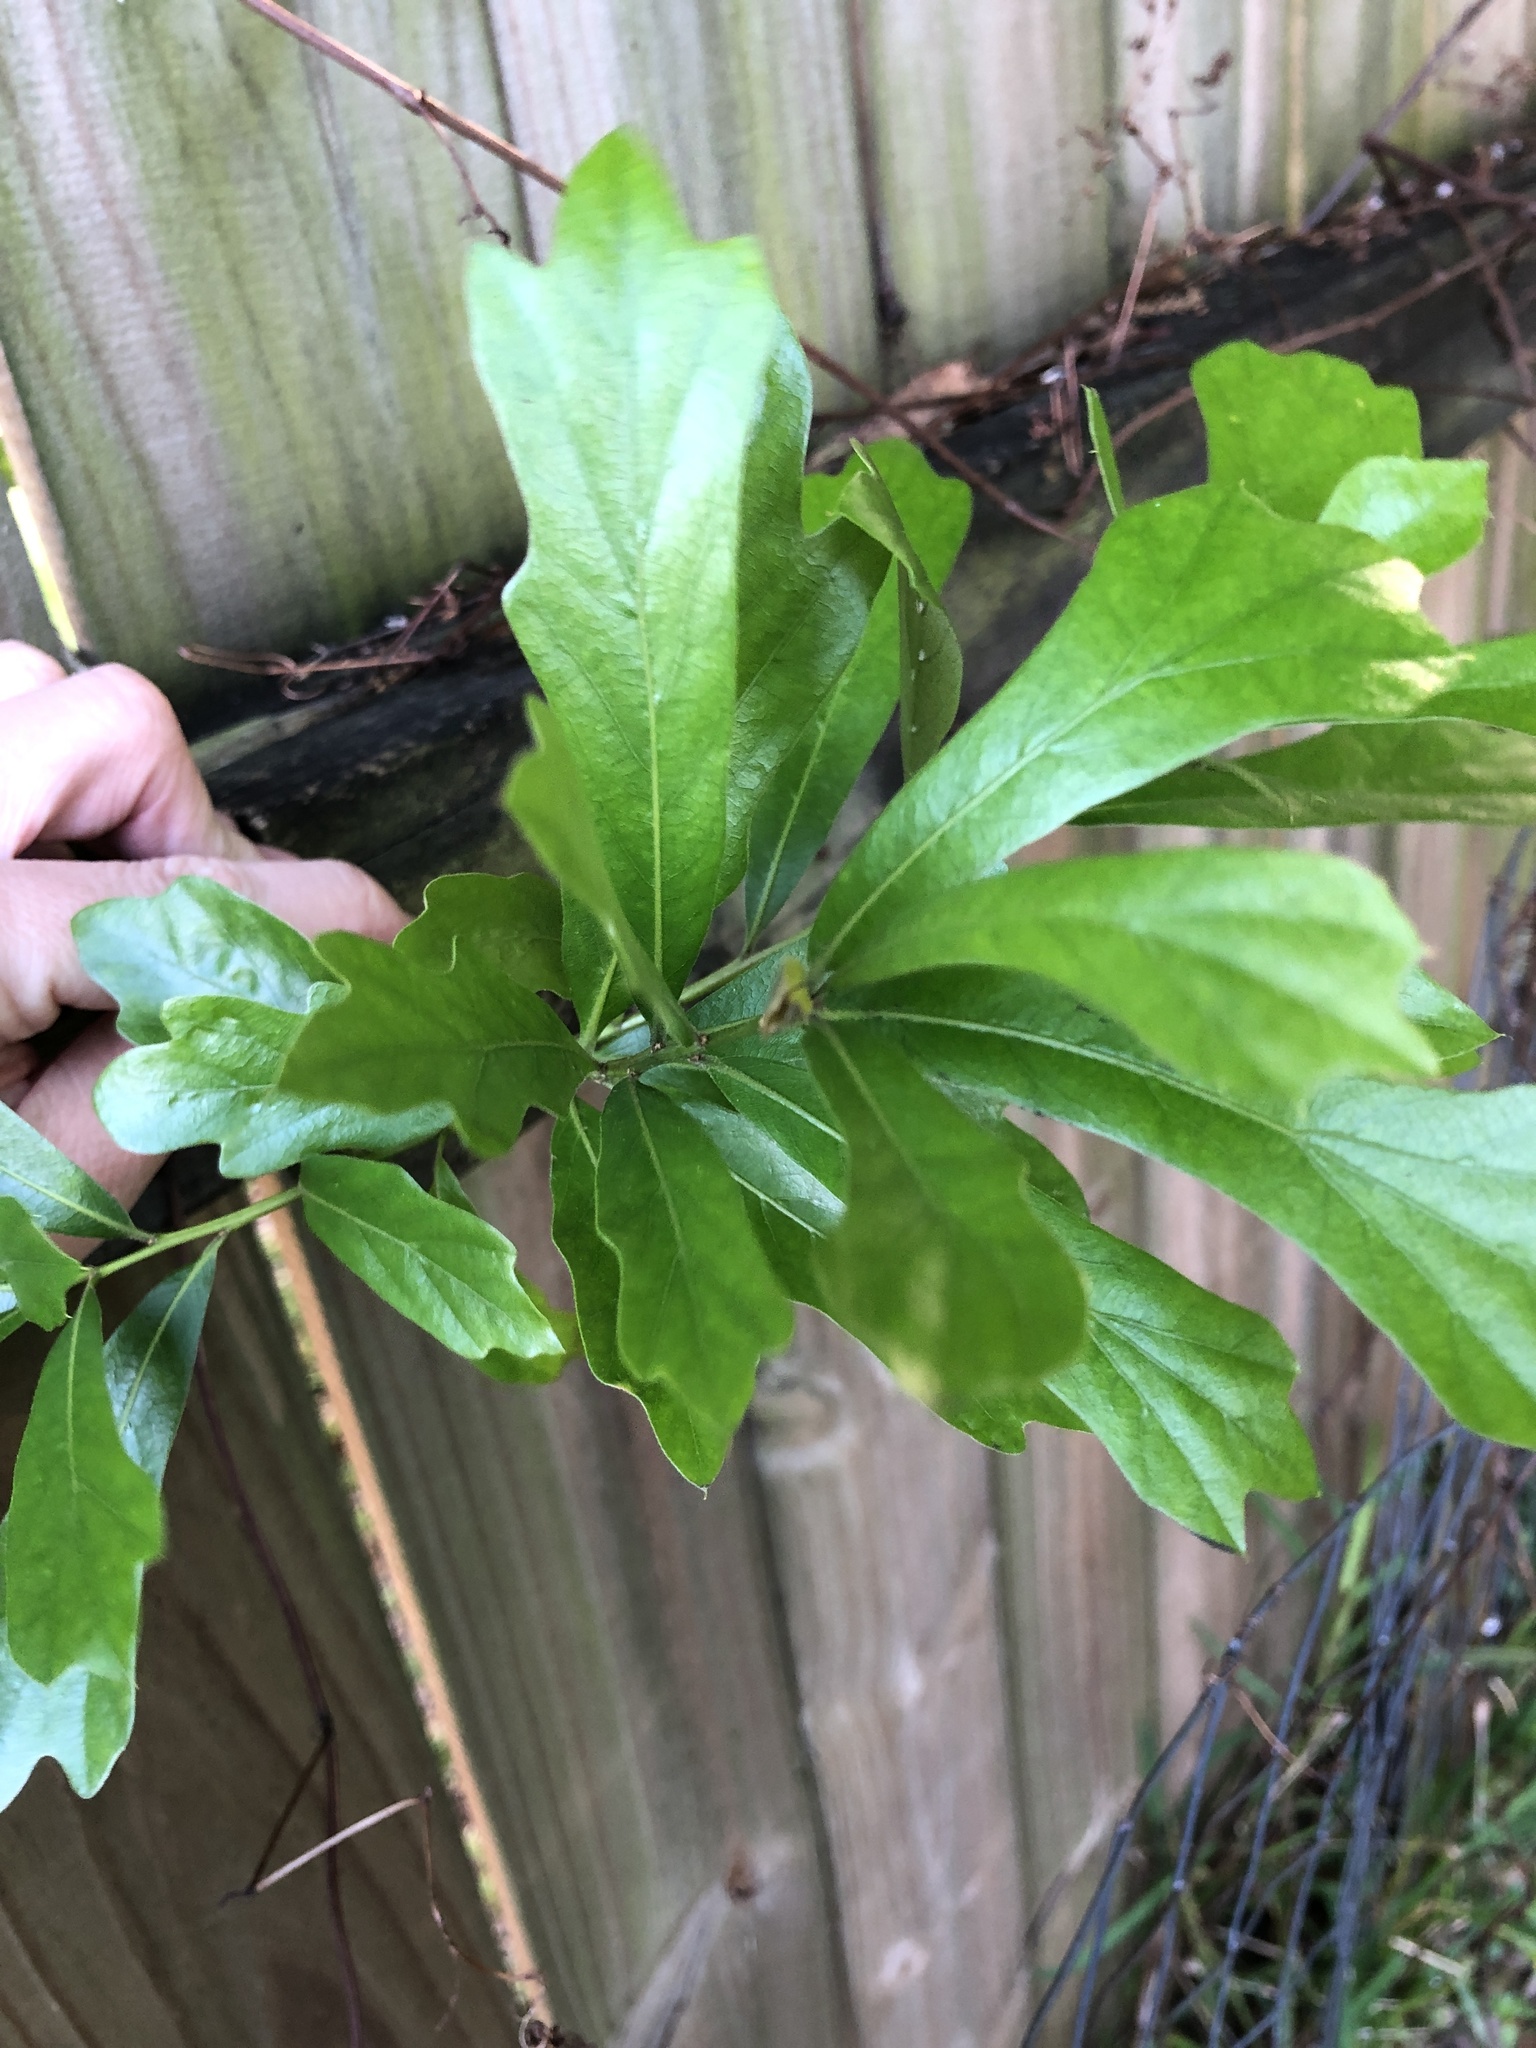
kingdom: Plantae
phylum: Tracheophyta
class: Magnoliopsida
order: Fagales
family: Fagaceae
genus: Quercus
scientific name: Quercus nigra
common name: Water oak
